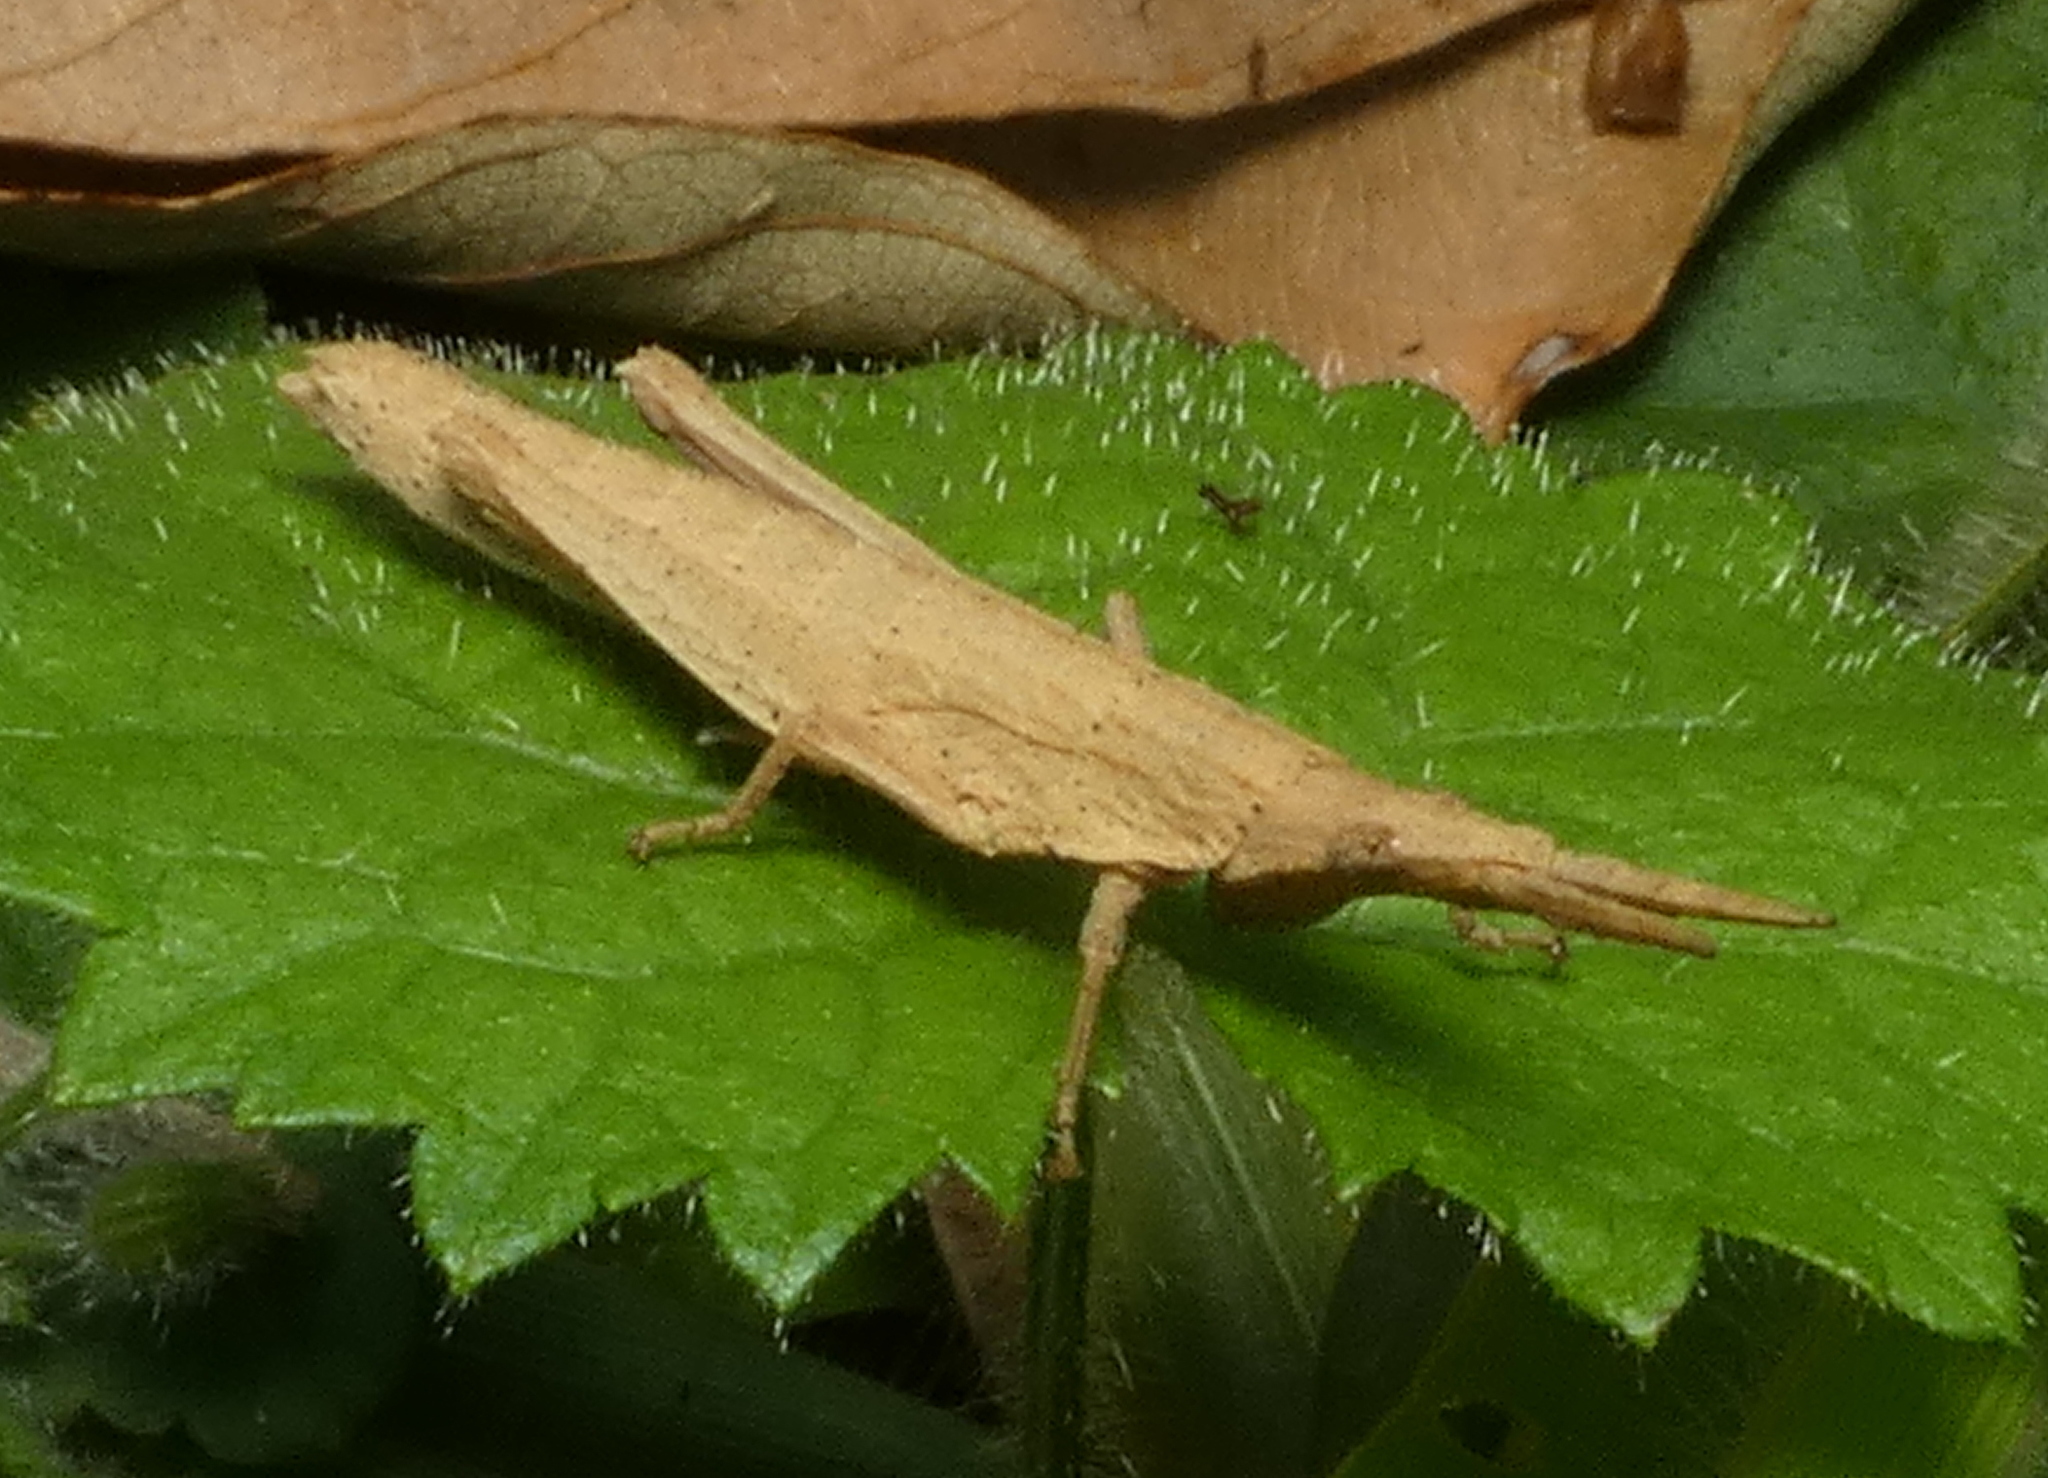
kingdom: Animalia
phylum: Arthropoda
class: Insecta
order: Orthoptera
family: Pyrgomorphidae
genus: Algete
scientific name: Algete brunneri
